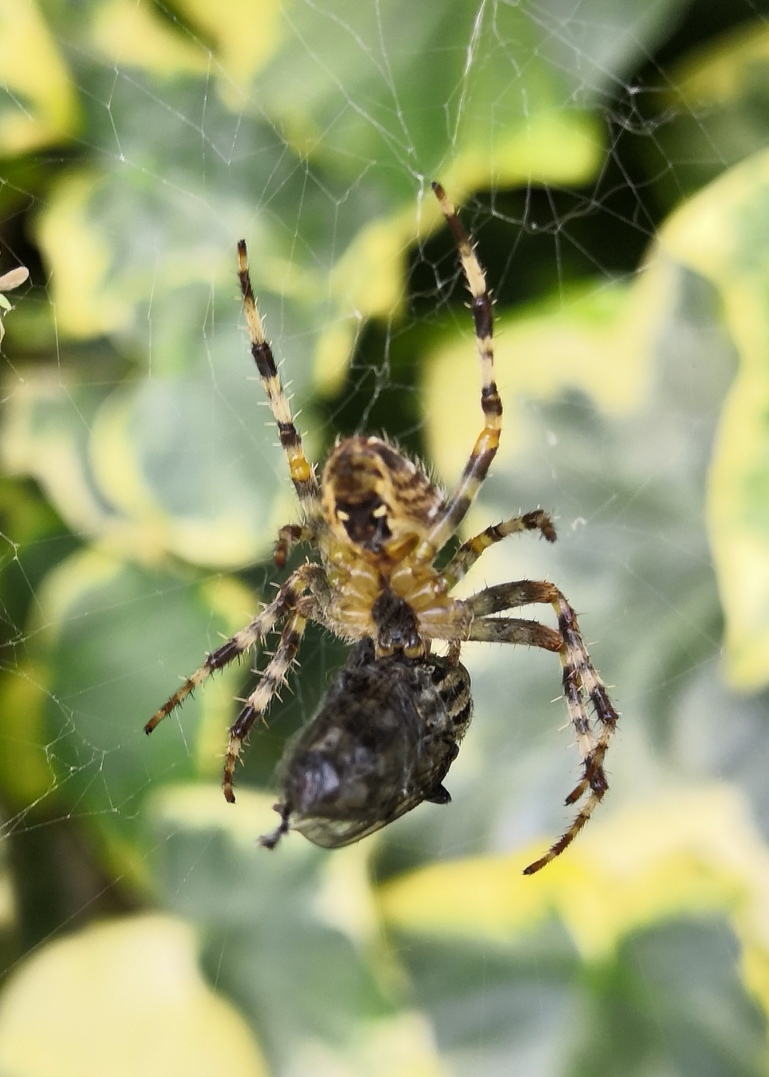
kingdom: Animalia
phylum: Arthropoda
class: Arachnida
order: Araneae
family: Araneidae
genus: Araneus
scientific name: Araneus diadematus
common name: Cross orbweaver
